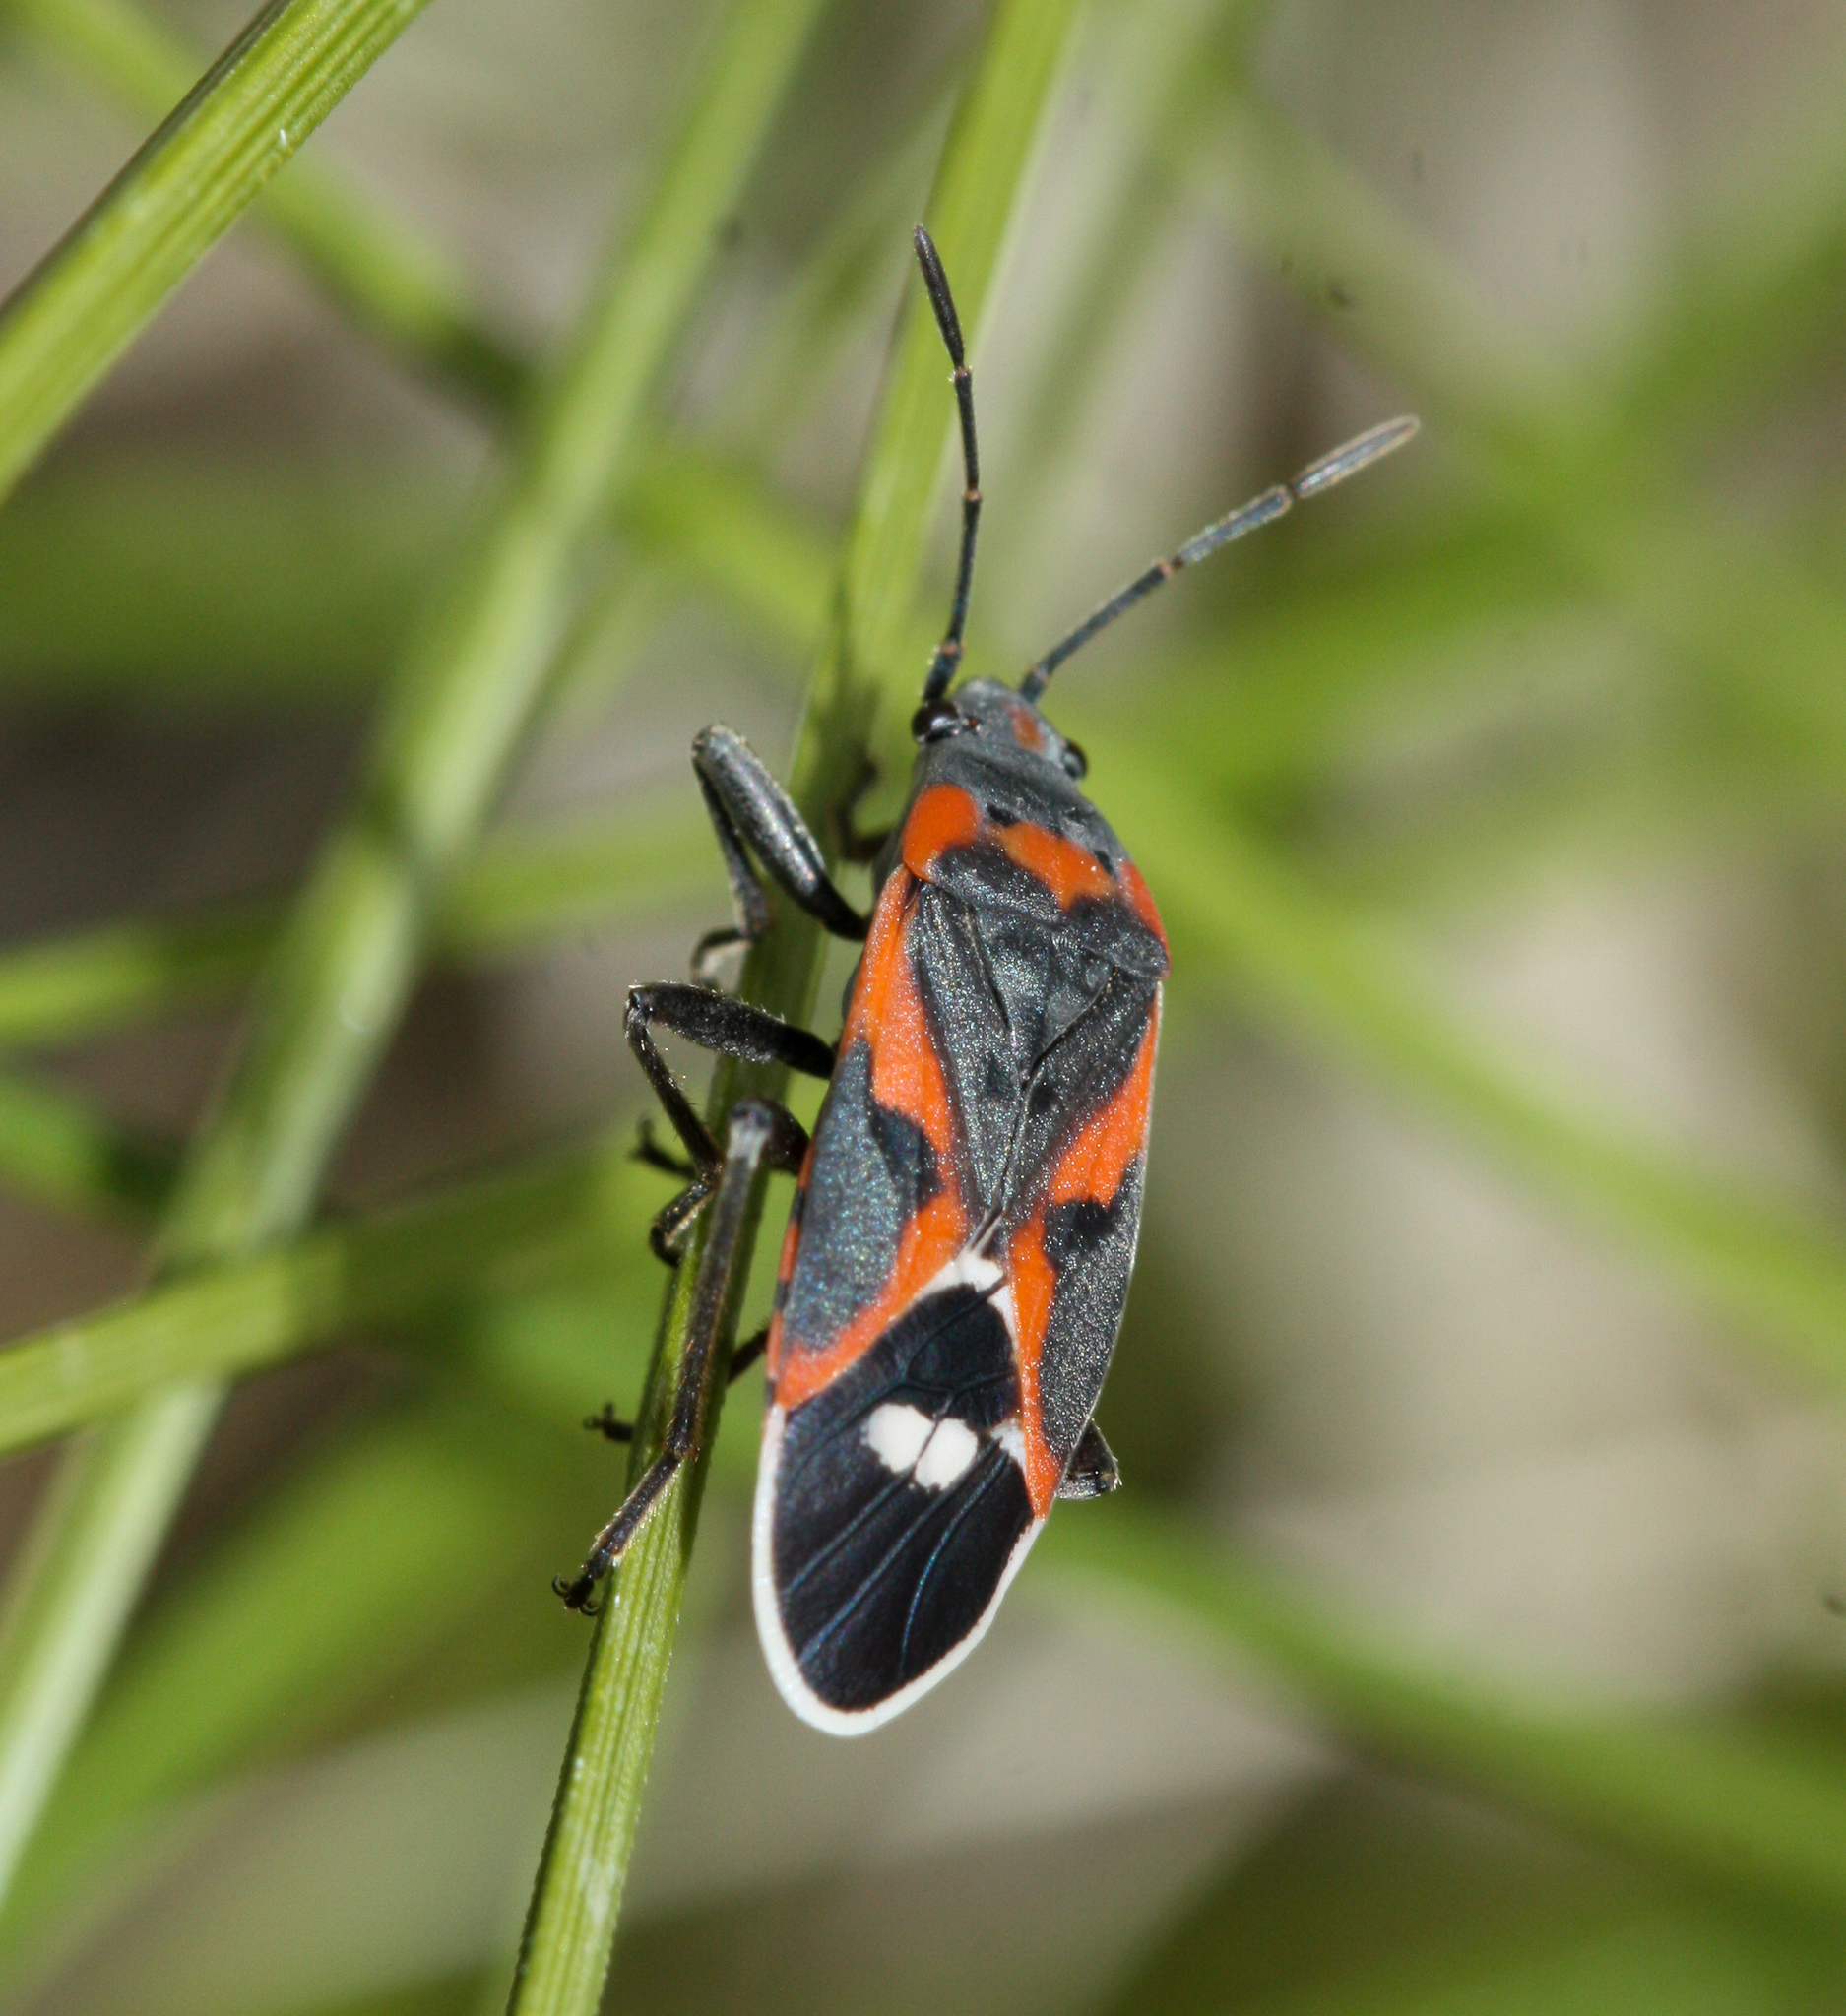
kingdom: Animalia
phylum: Arthropoda
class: Insecta
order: Hemiptera
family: Lygaeidae
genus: Lygaeus
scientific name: Lygaeus kalmii
